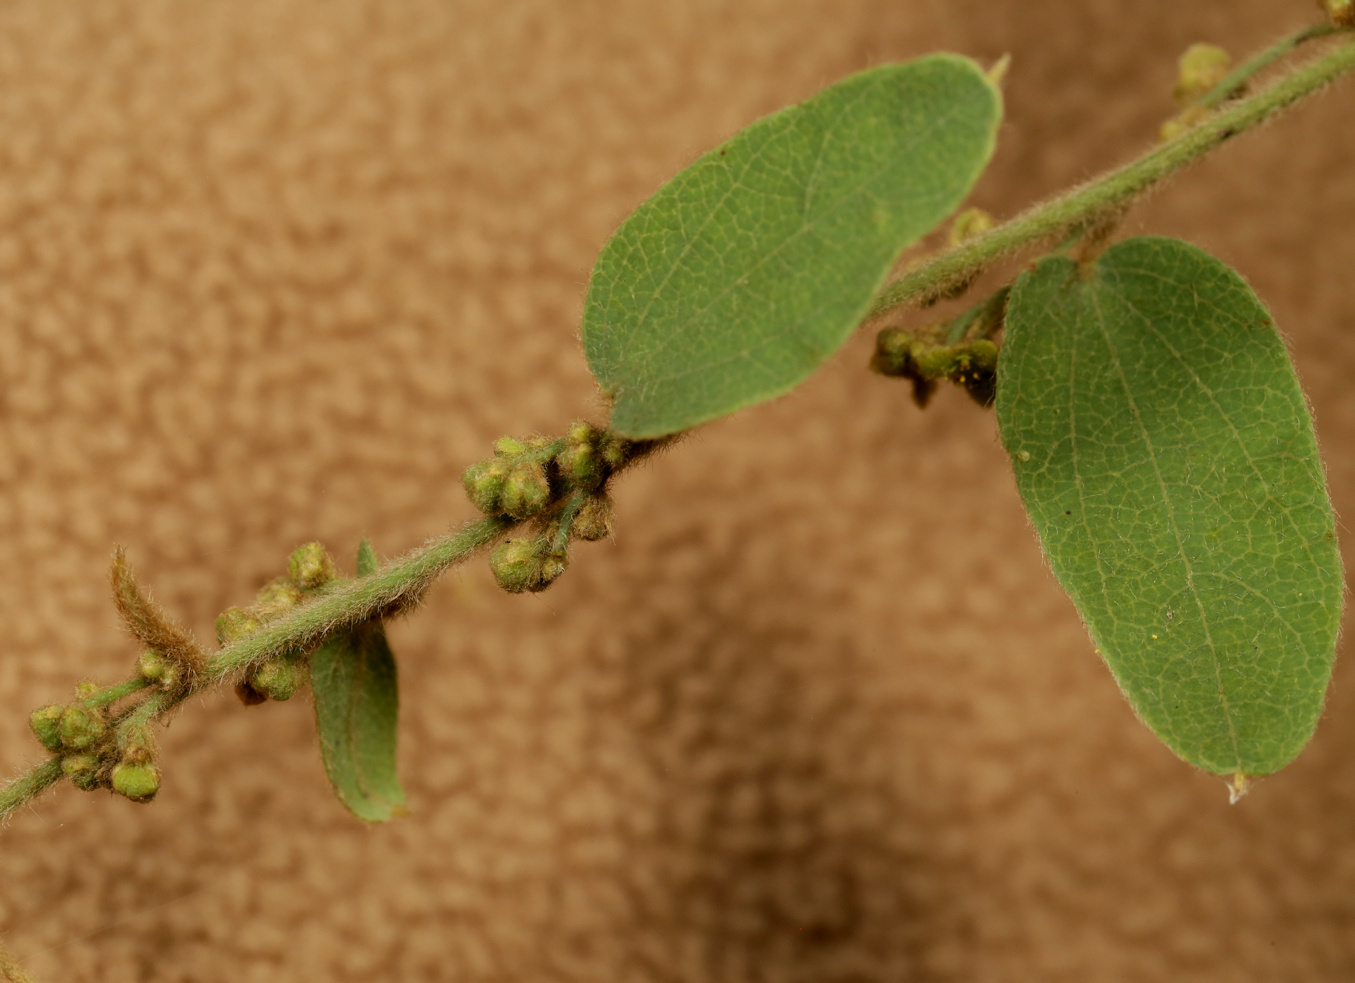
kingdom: Plantae
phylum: Tracheophyta
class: Magnoliopsida
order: Ranunculales
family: Menispermaceae
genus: Cocculus
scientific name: Cocculus hirsutus
